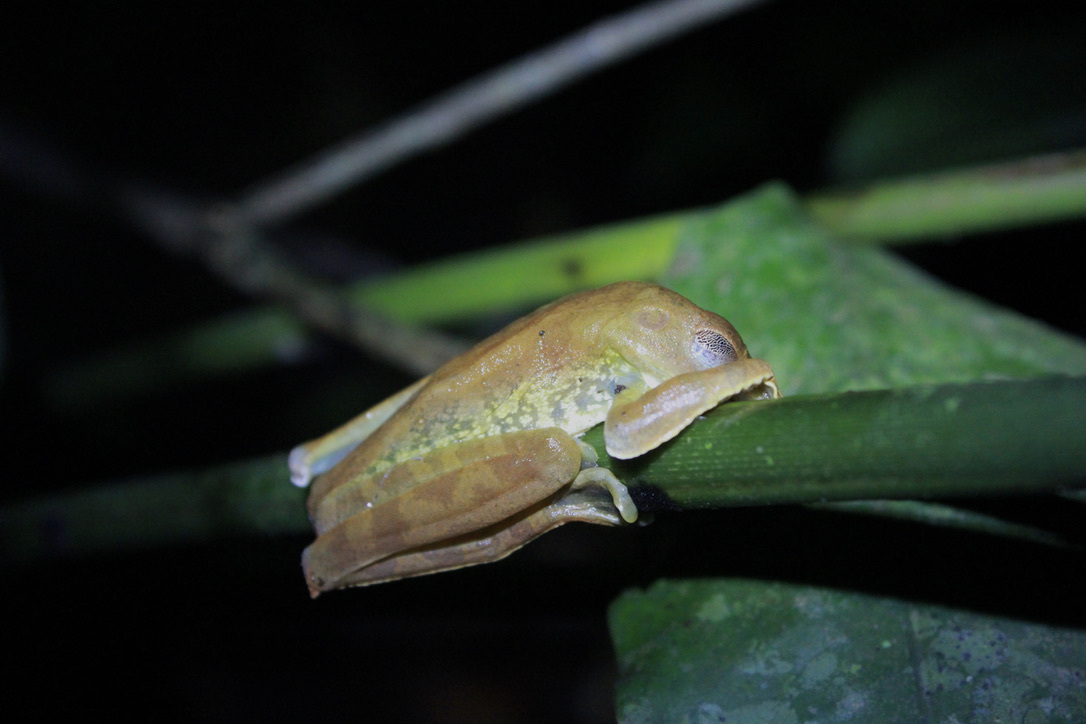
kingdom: Animalia
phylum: Chordata
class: Amphibia
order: Anura
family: Hylidae
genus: Boana
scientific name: Boana boans
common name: Giant gladiator treefrog
